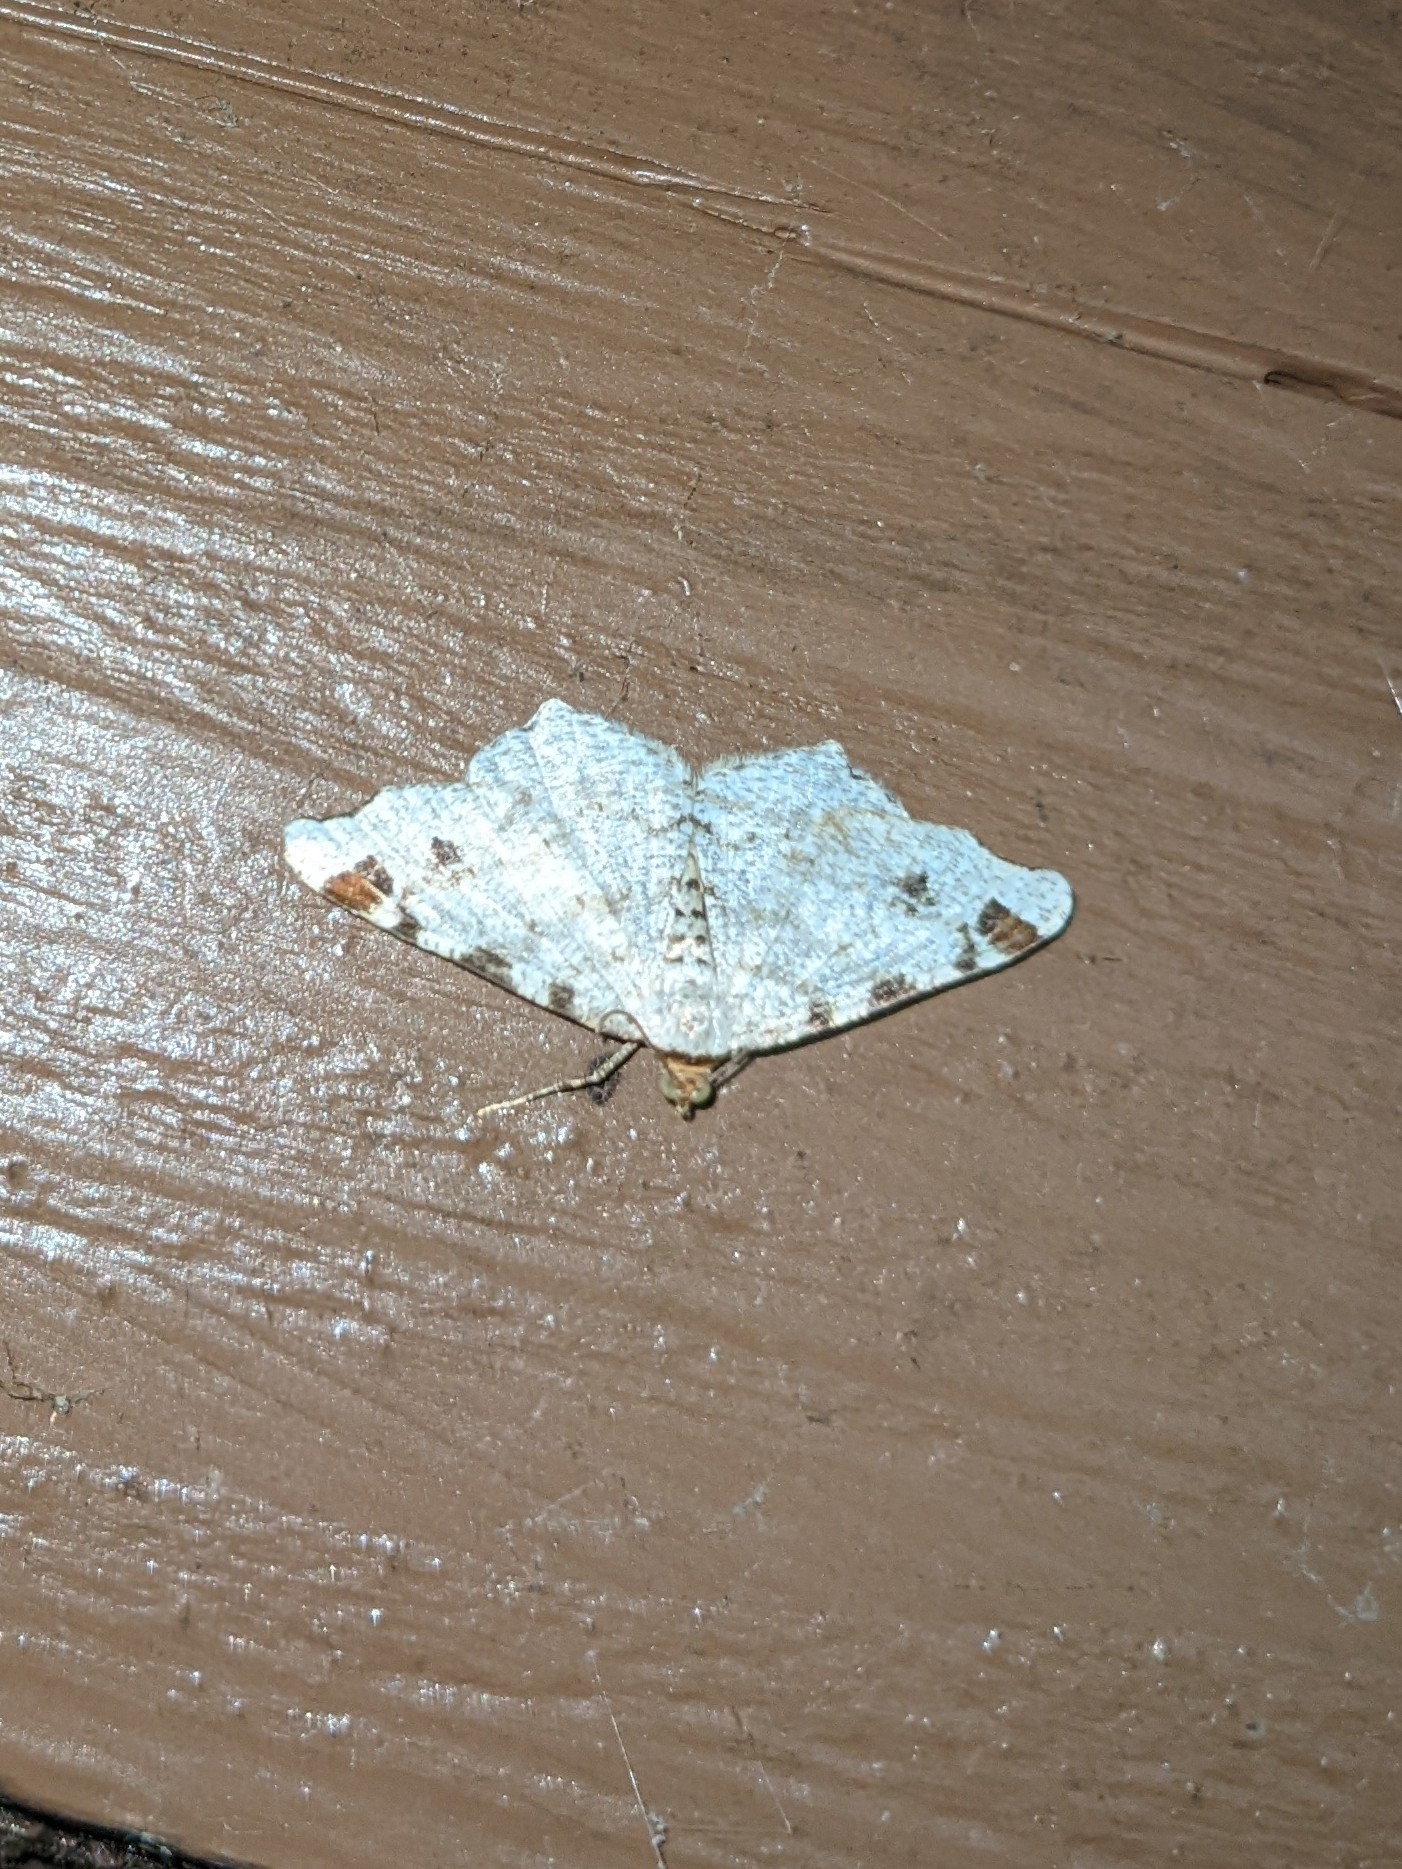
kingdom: Animalia
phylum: Arthropoda
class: Insecta
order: Lepidoptera
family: Geometridae
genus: Macaria
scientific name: Macaria ulsterata
